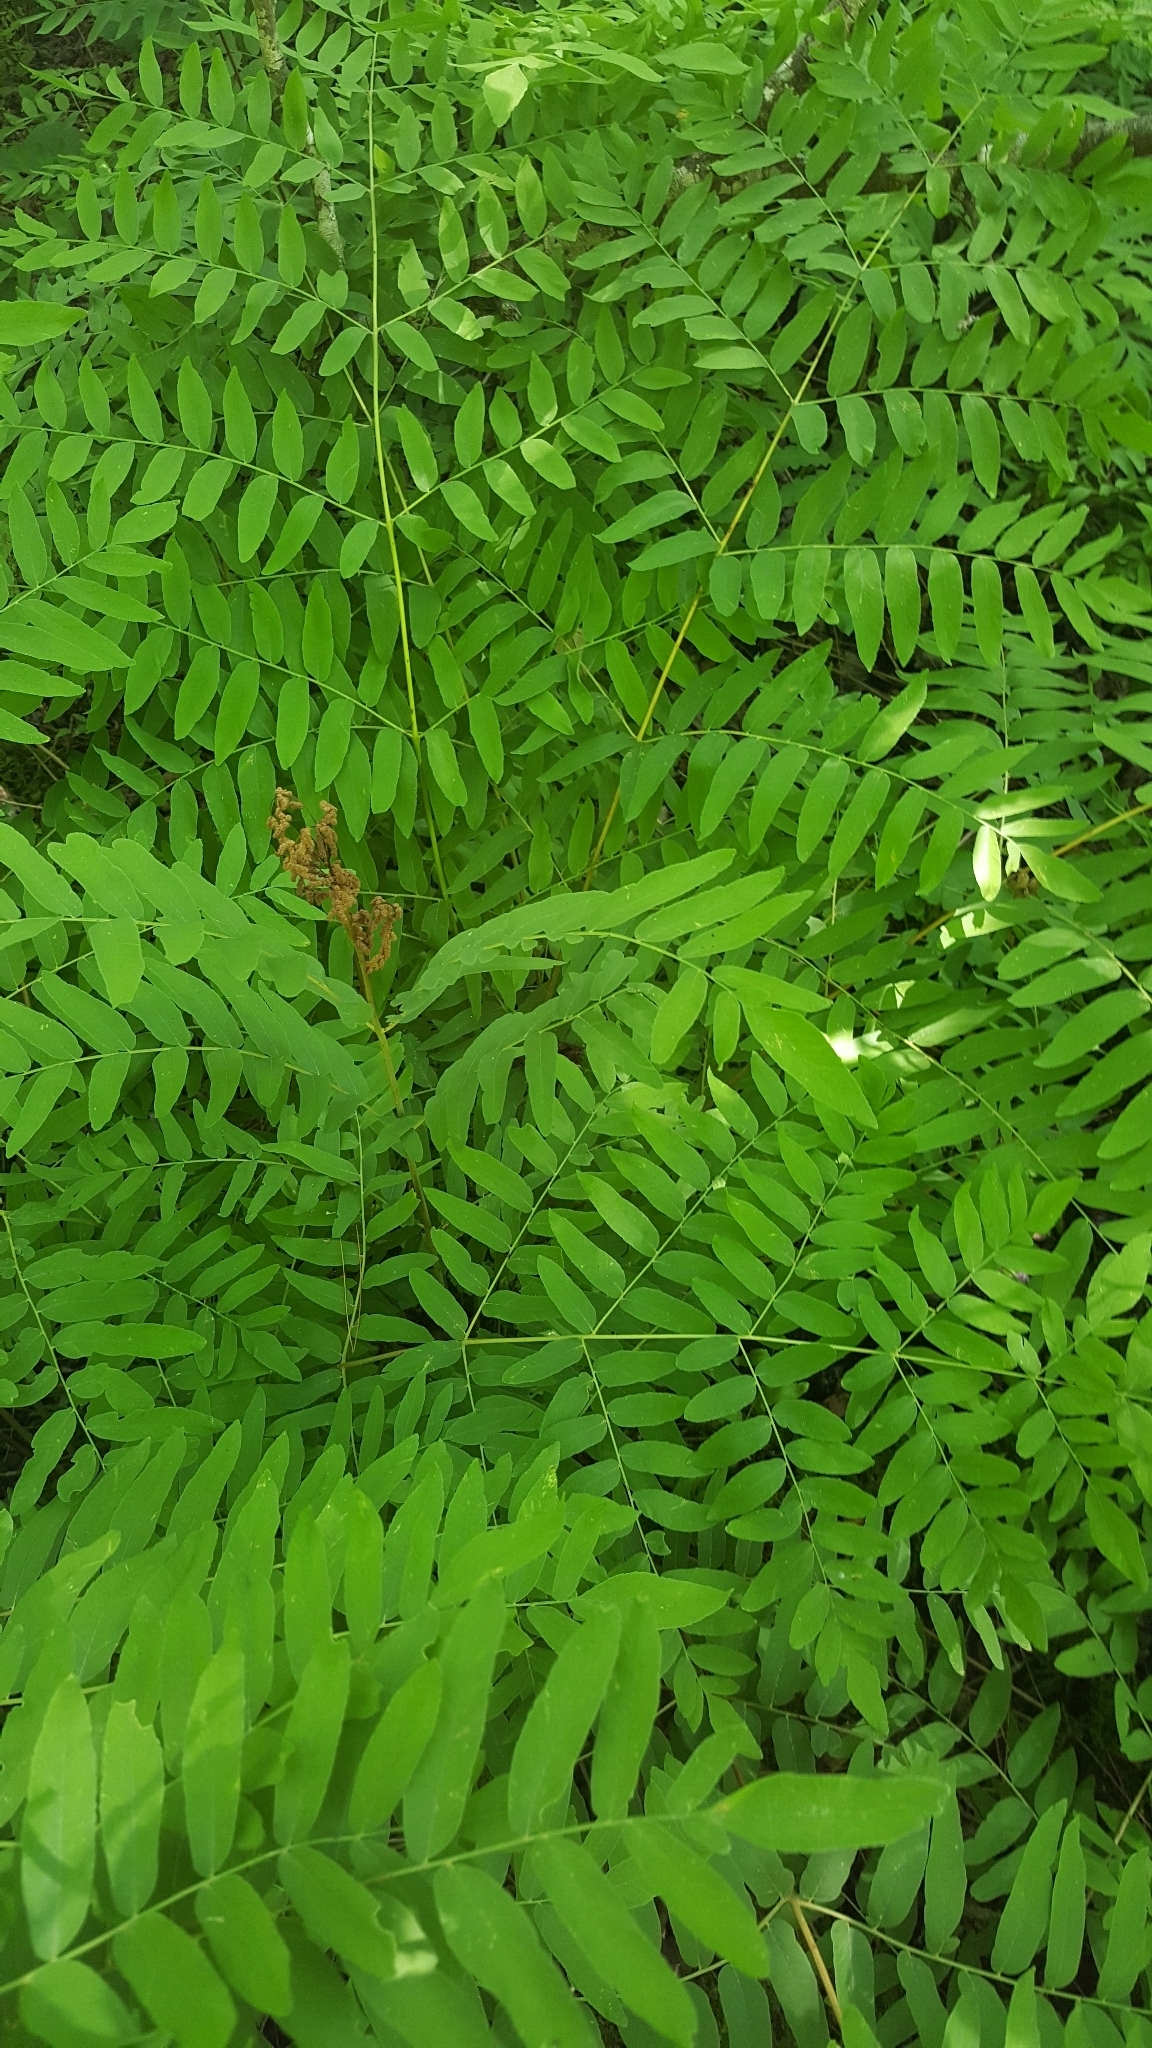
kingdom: Plantae
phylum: Tracheophyta
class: Polypodiopsida
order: Osmundales
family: Osmundaceae
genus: Osmunda
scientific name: Osmunda spectabilis
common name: American royal fern
